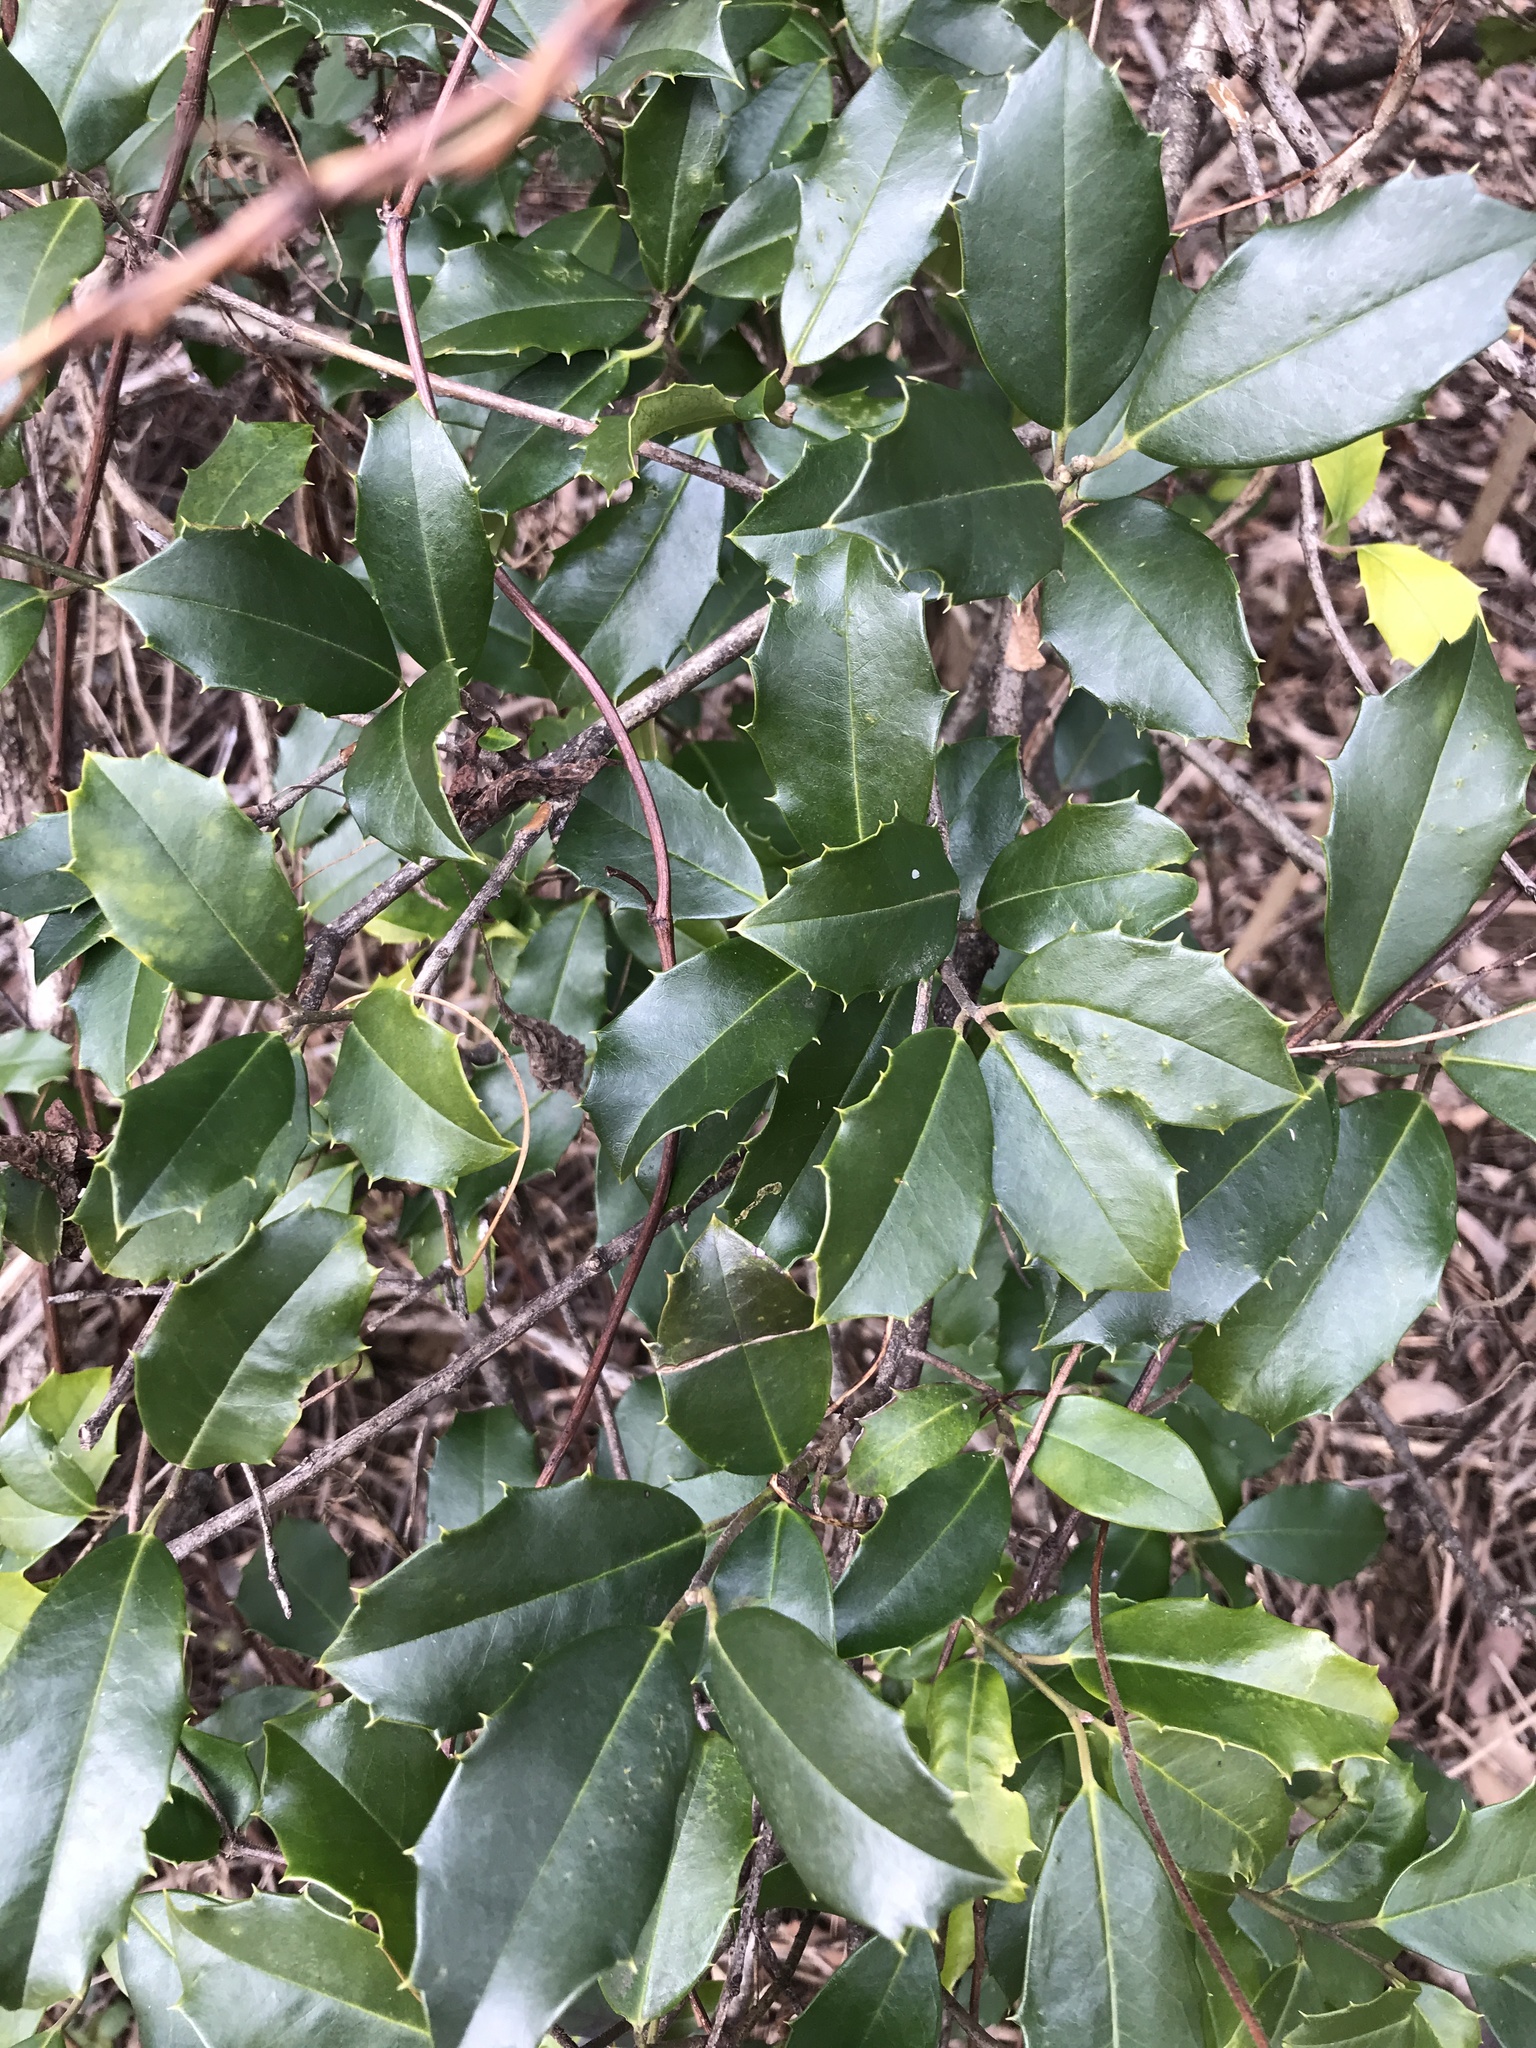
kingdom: Plantae
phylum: Tracheophyta
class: Magnoliopsida
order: Aquifoliales
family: Aquifoliaceae
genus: Ilex
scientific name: Ilex opaca
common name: American holly
